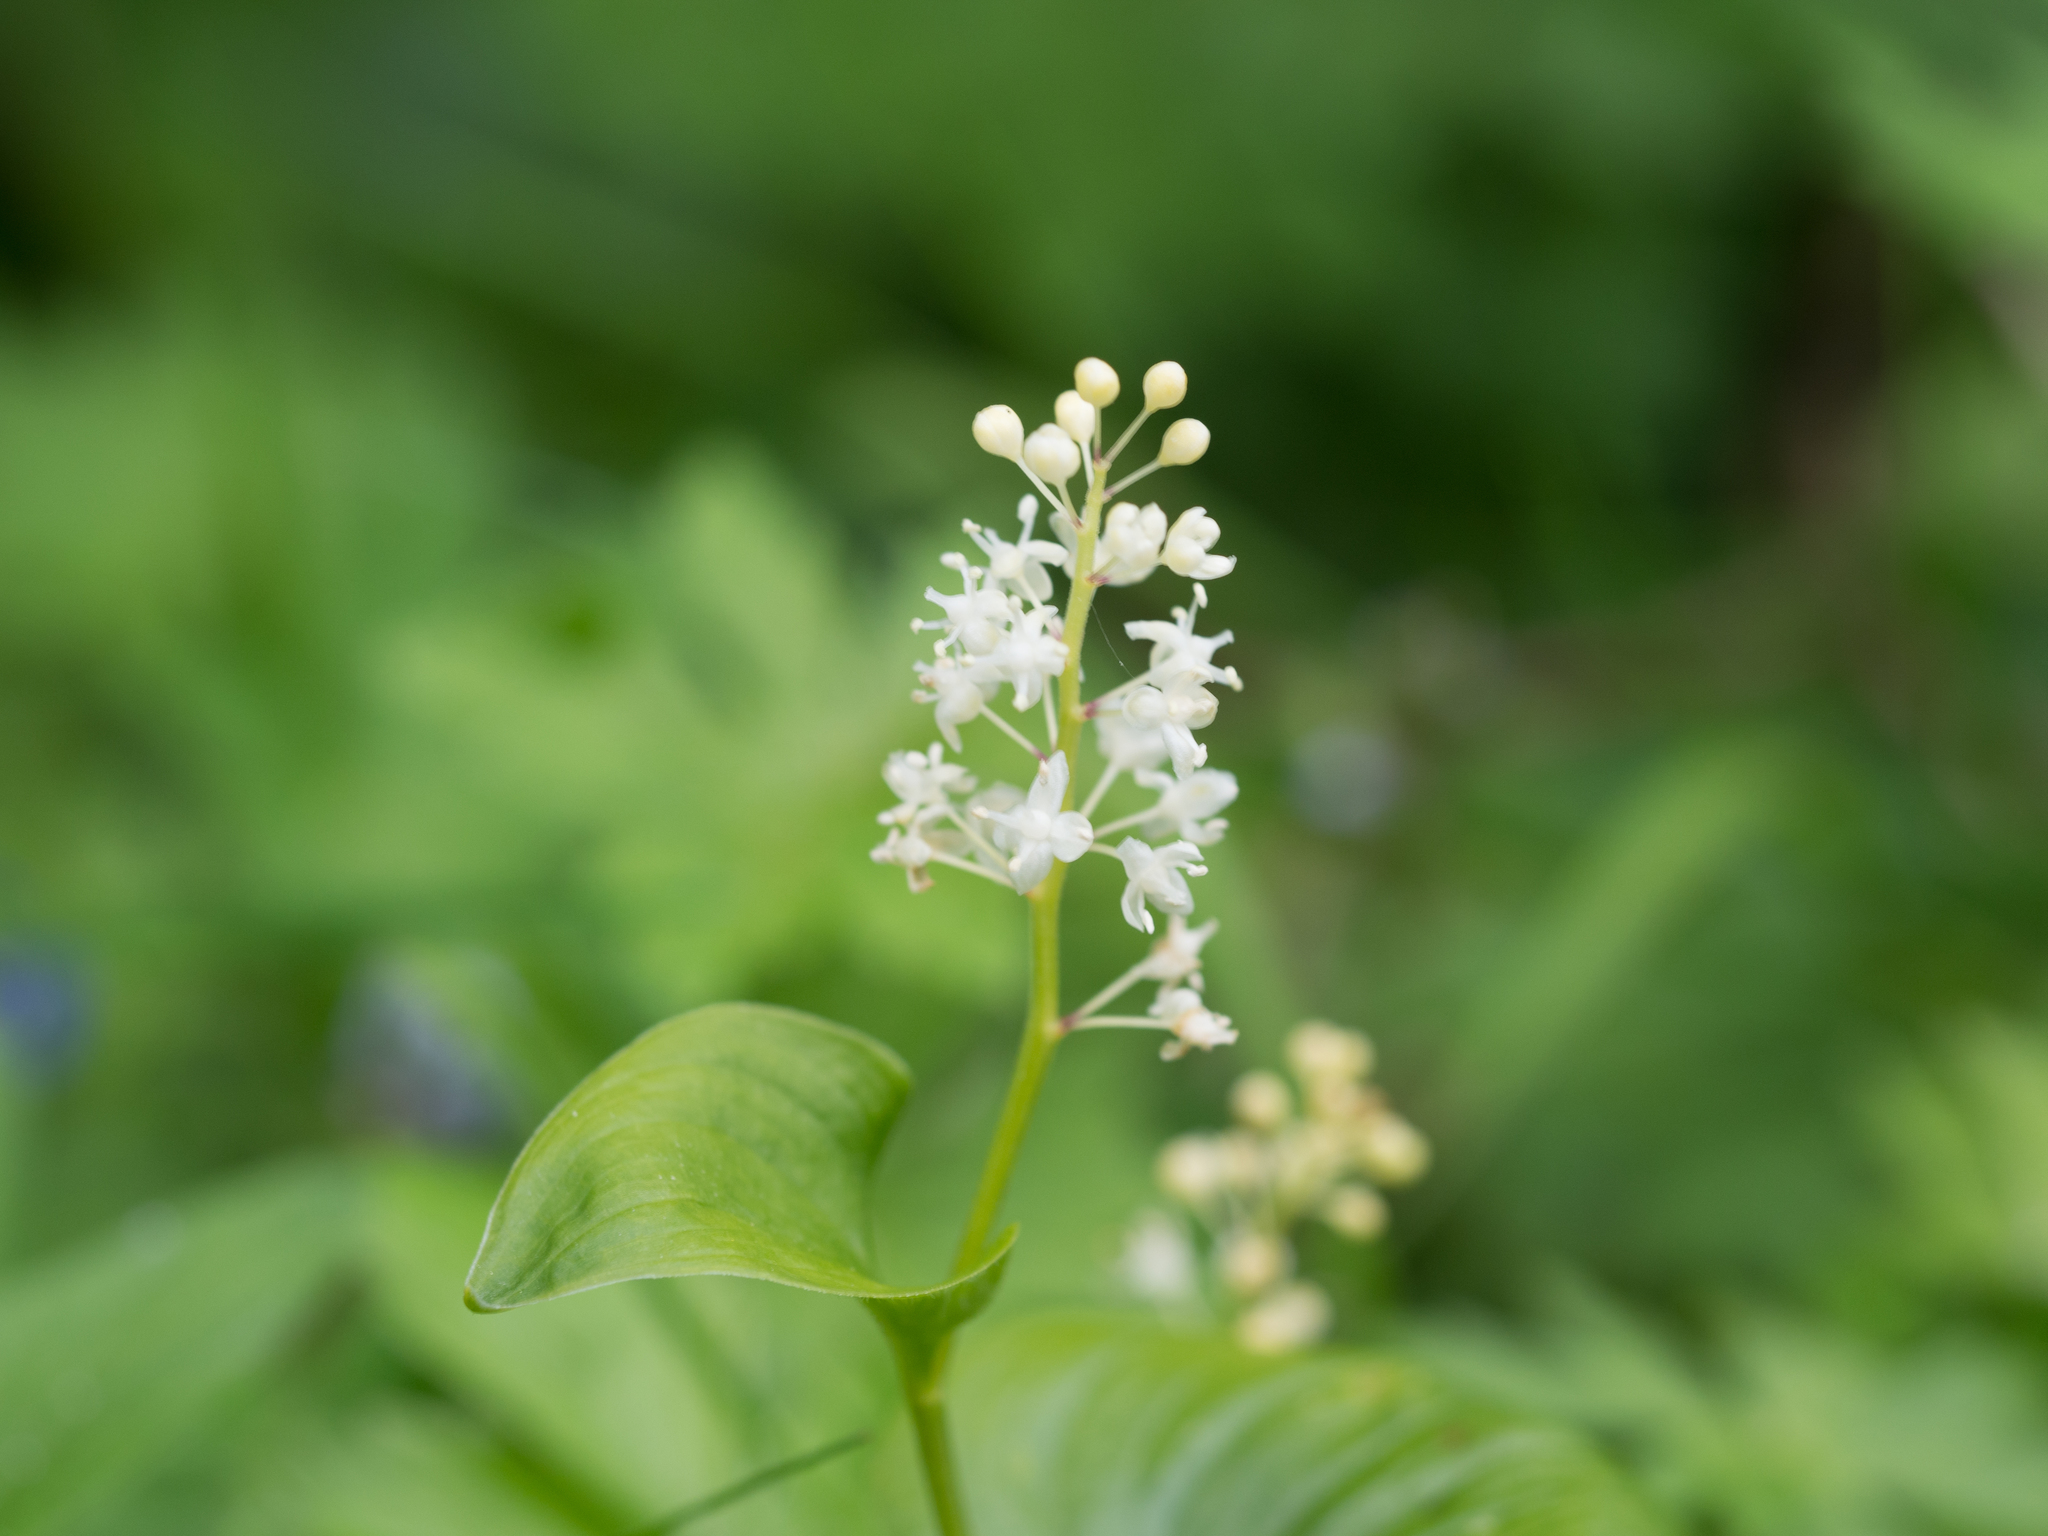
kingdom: Plantae
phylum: Tracheophyta
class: Liliopsida
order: Asparagales
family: Asparagaceae
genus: Maianthemum
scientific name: Maianthemum bifolium
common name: May lily
